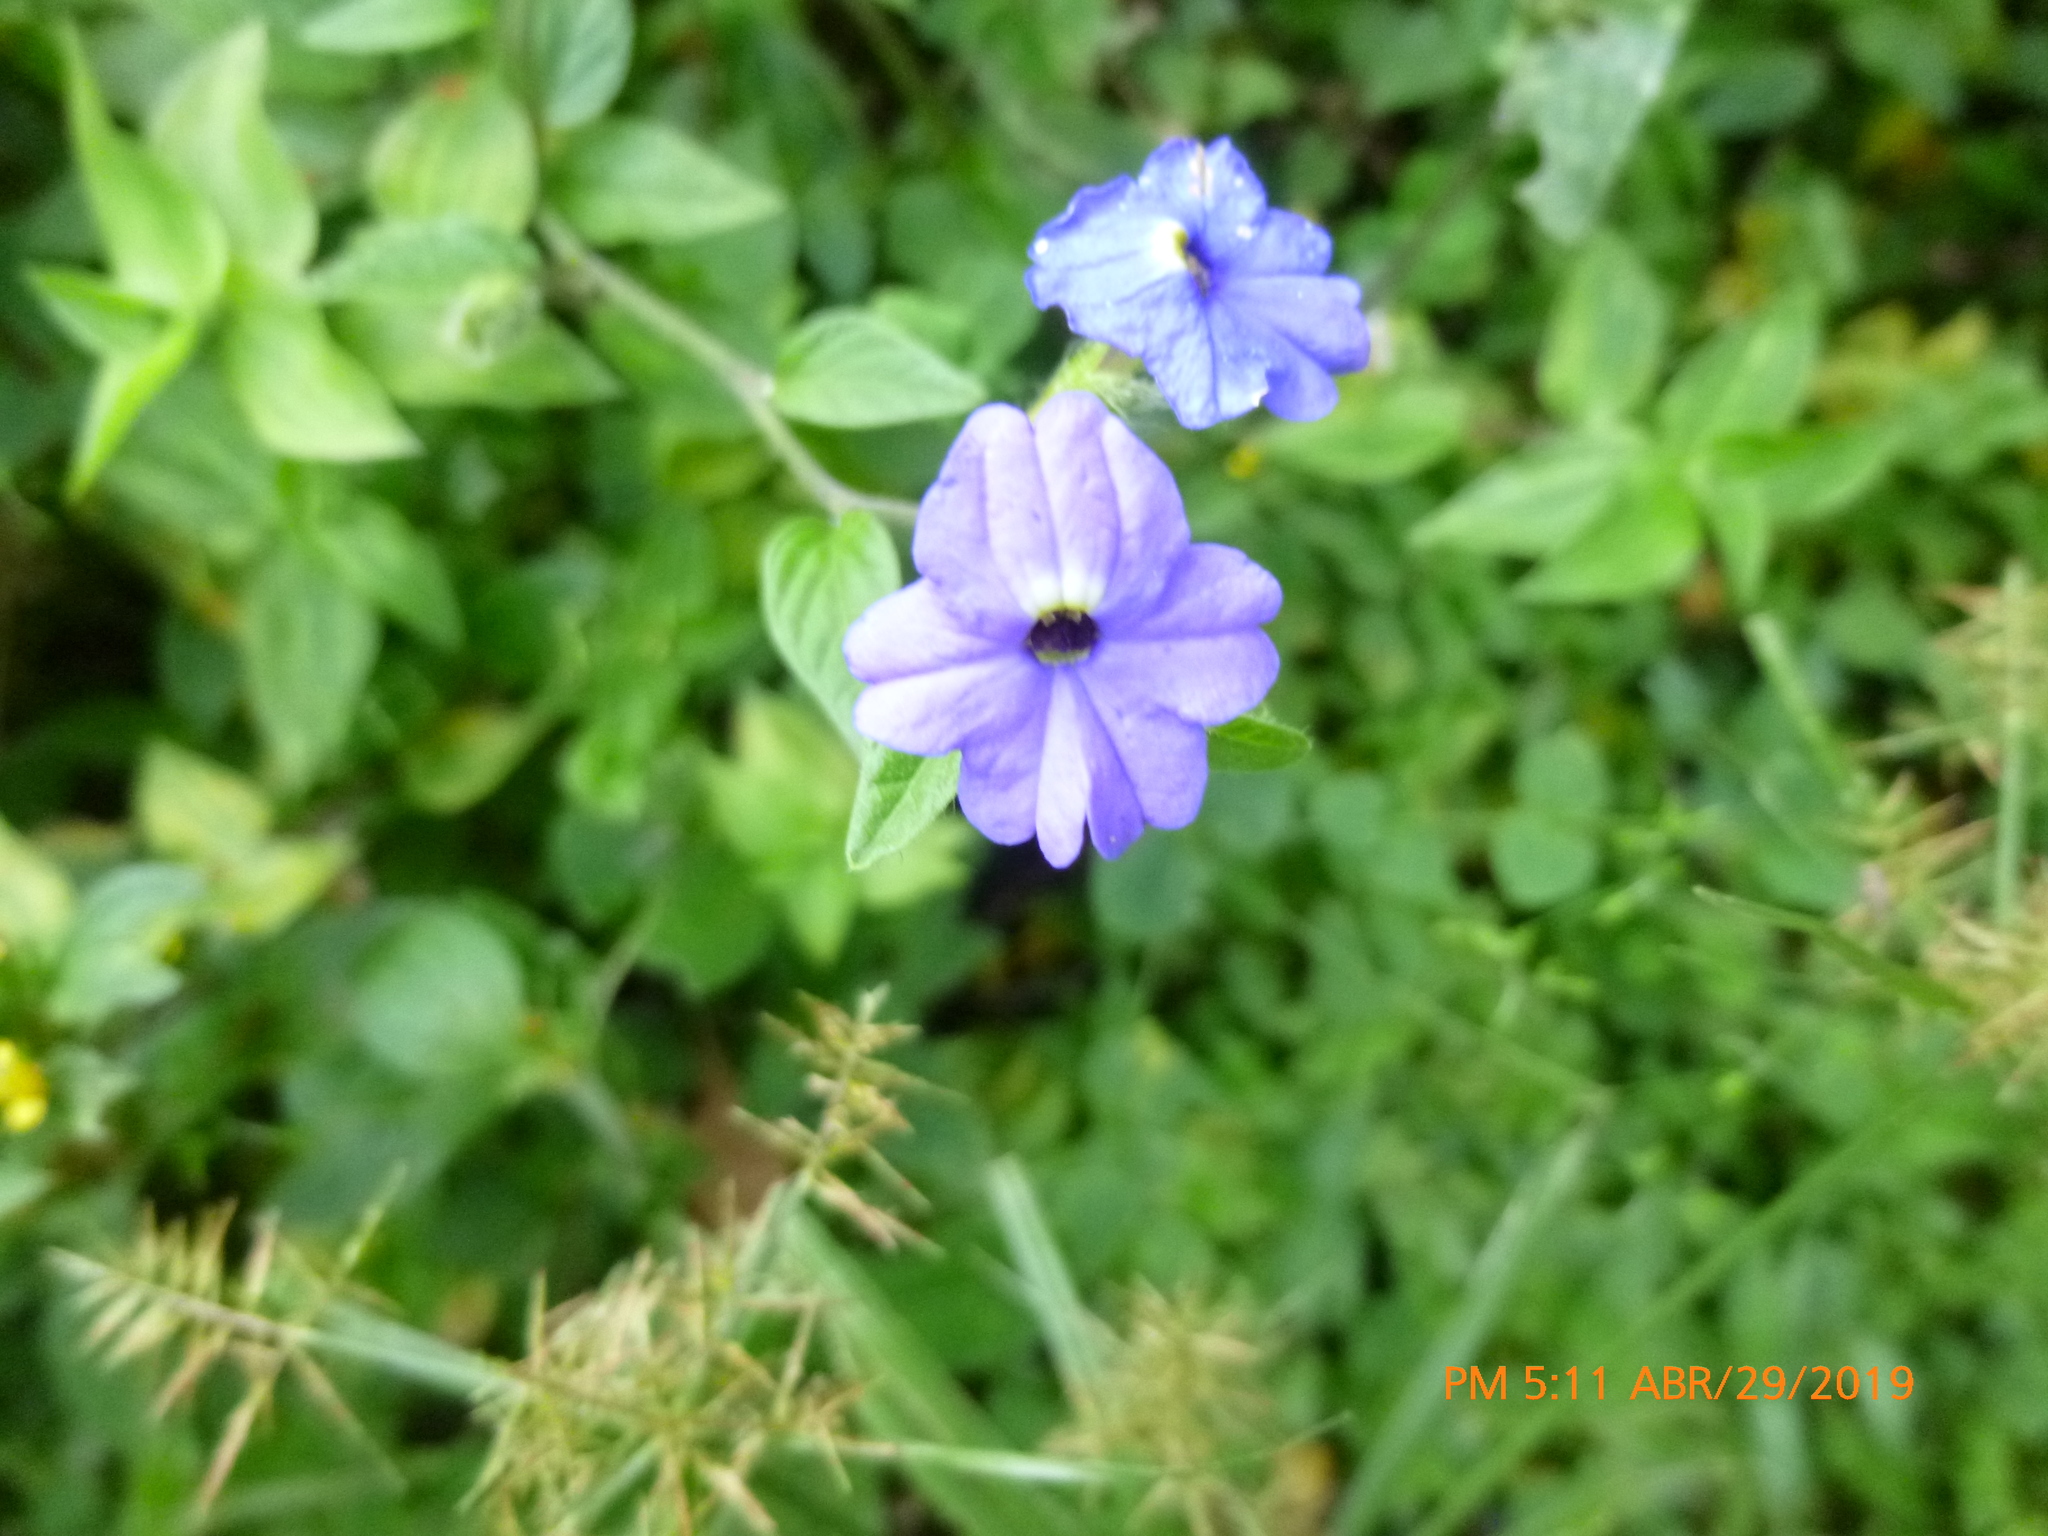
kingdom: Plantae
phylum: Tracheophyta
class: Magnoliopsida
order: Solanales
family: Solanaceae
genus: Browallia
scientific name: Browallia americana
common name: Jamaican forget-me-not
